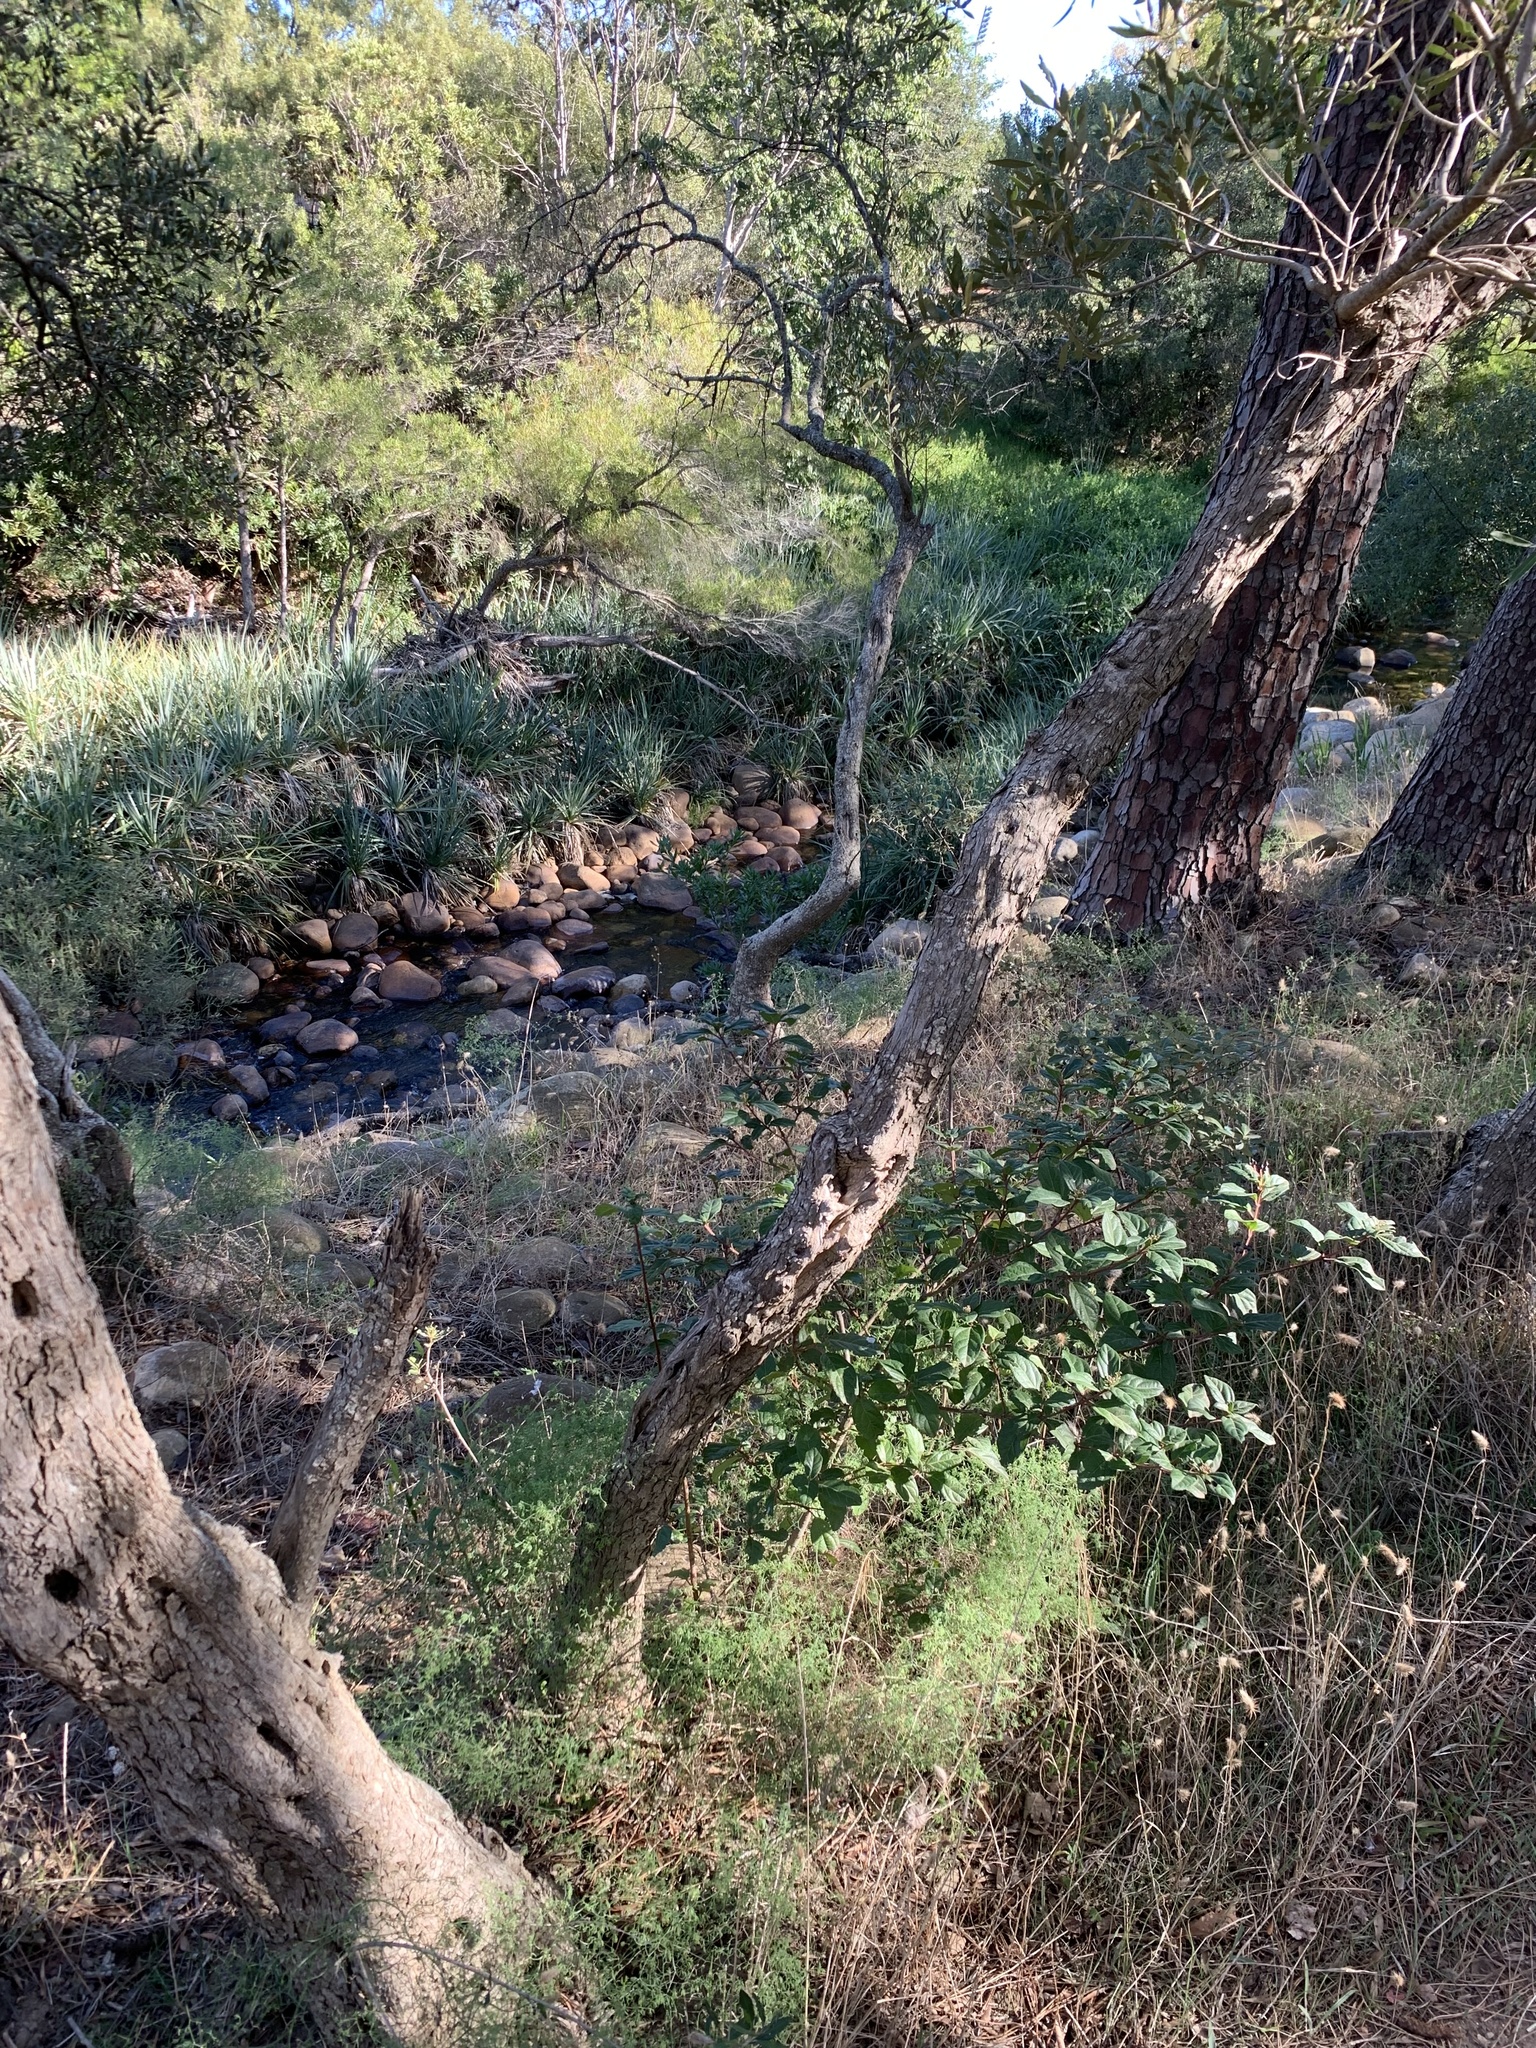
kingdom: Plantae
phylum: Tracheophyta
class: Magnoliopsida
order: Dipsacales
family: Viburnaceae
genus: Viburnum
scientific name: Viburnum tinus
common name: Laurustinus
